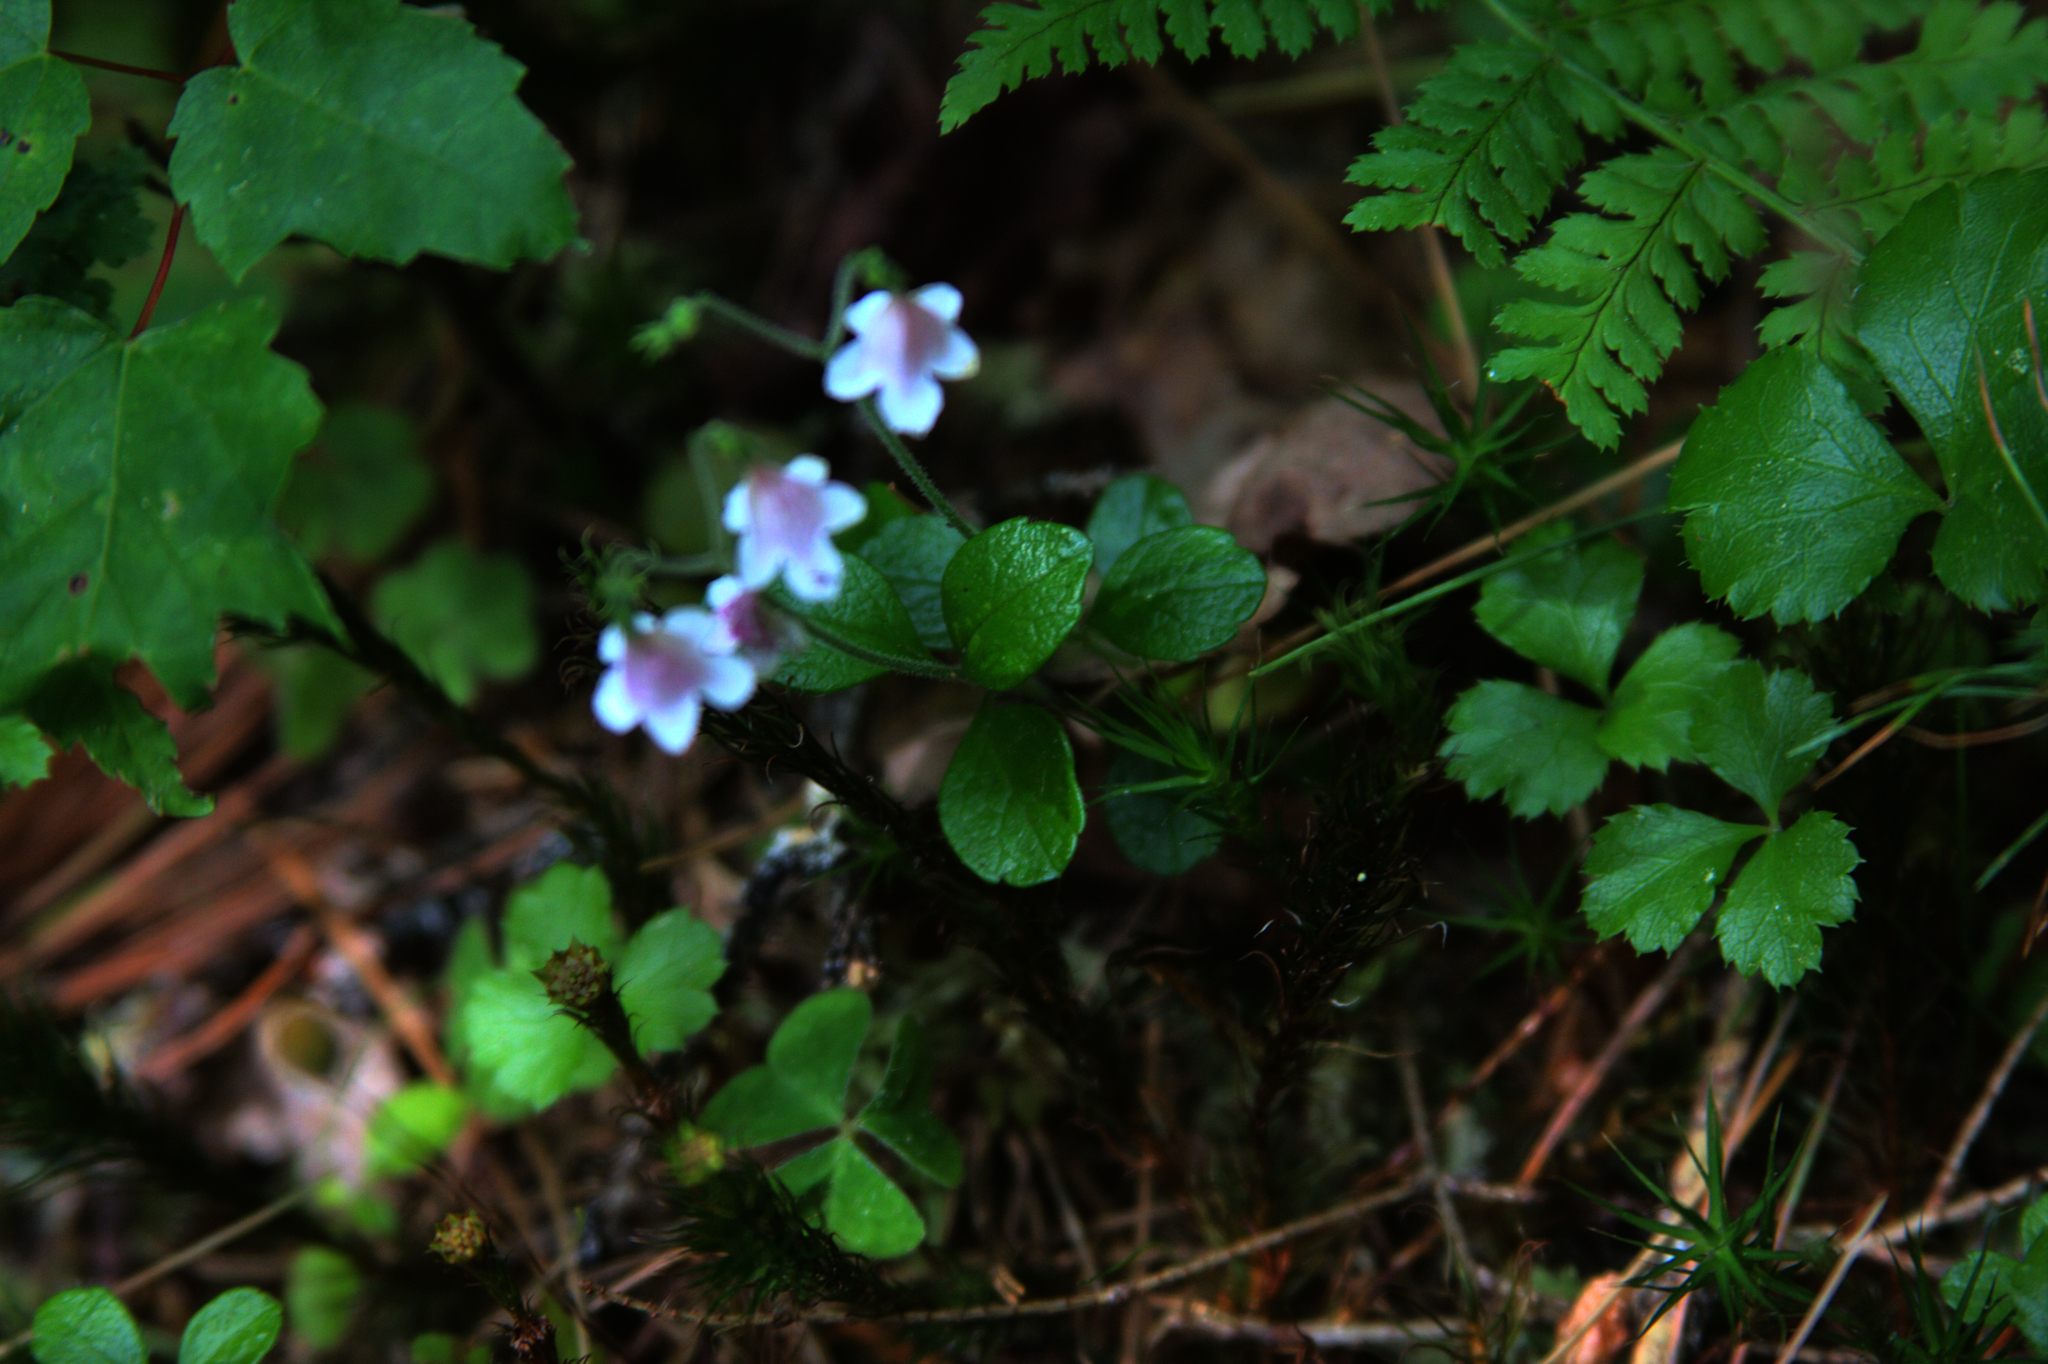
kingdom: Plantae
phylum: Tracheophyta
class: Magnoliopsida
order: Dipsacales
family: Caprifoliaceae
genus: Linnaea
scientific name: Linnaea borealis
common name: Twinflower
